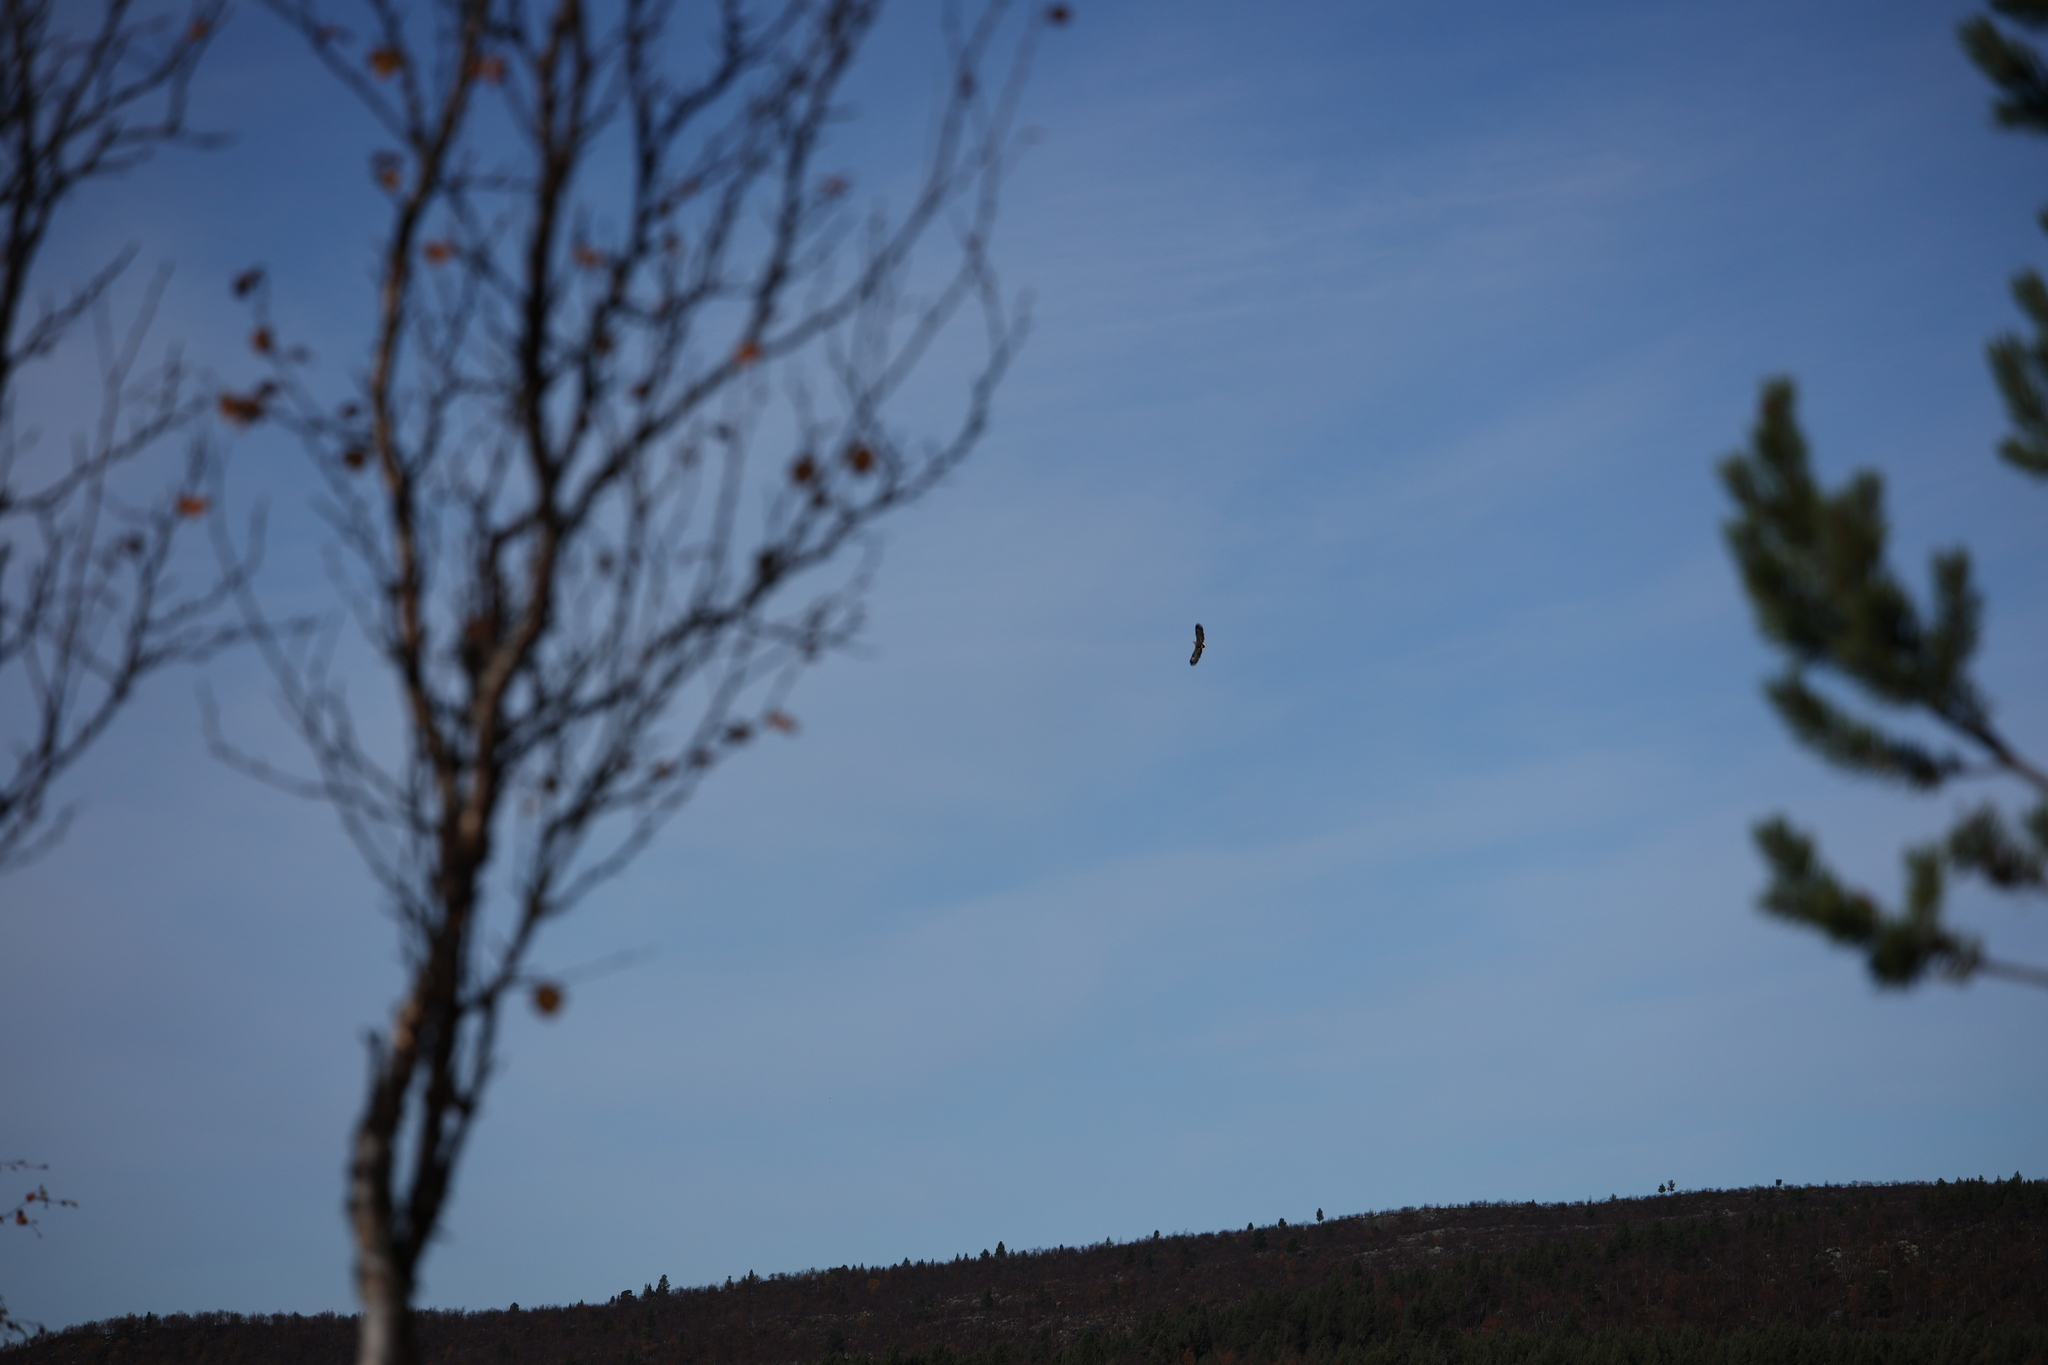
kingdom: Animalia
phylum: Chordata
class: Aves
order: Accipitriformes
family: Accipitridae
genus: Haliaeetus
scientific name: Haliaeetus albicilla
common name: White-tailed eagle
